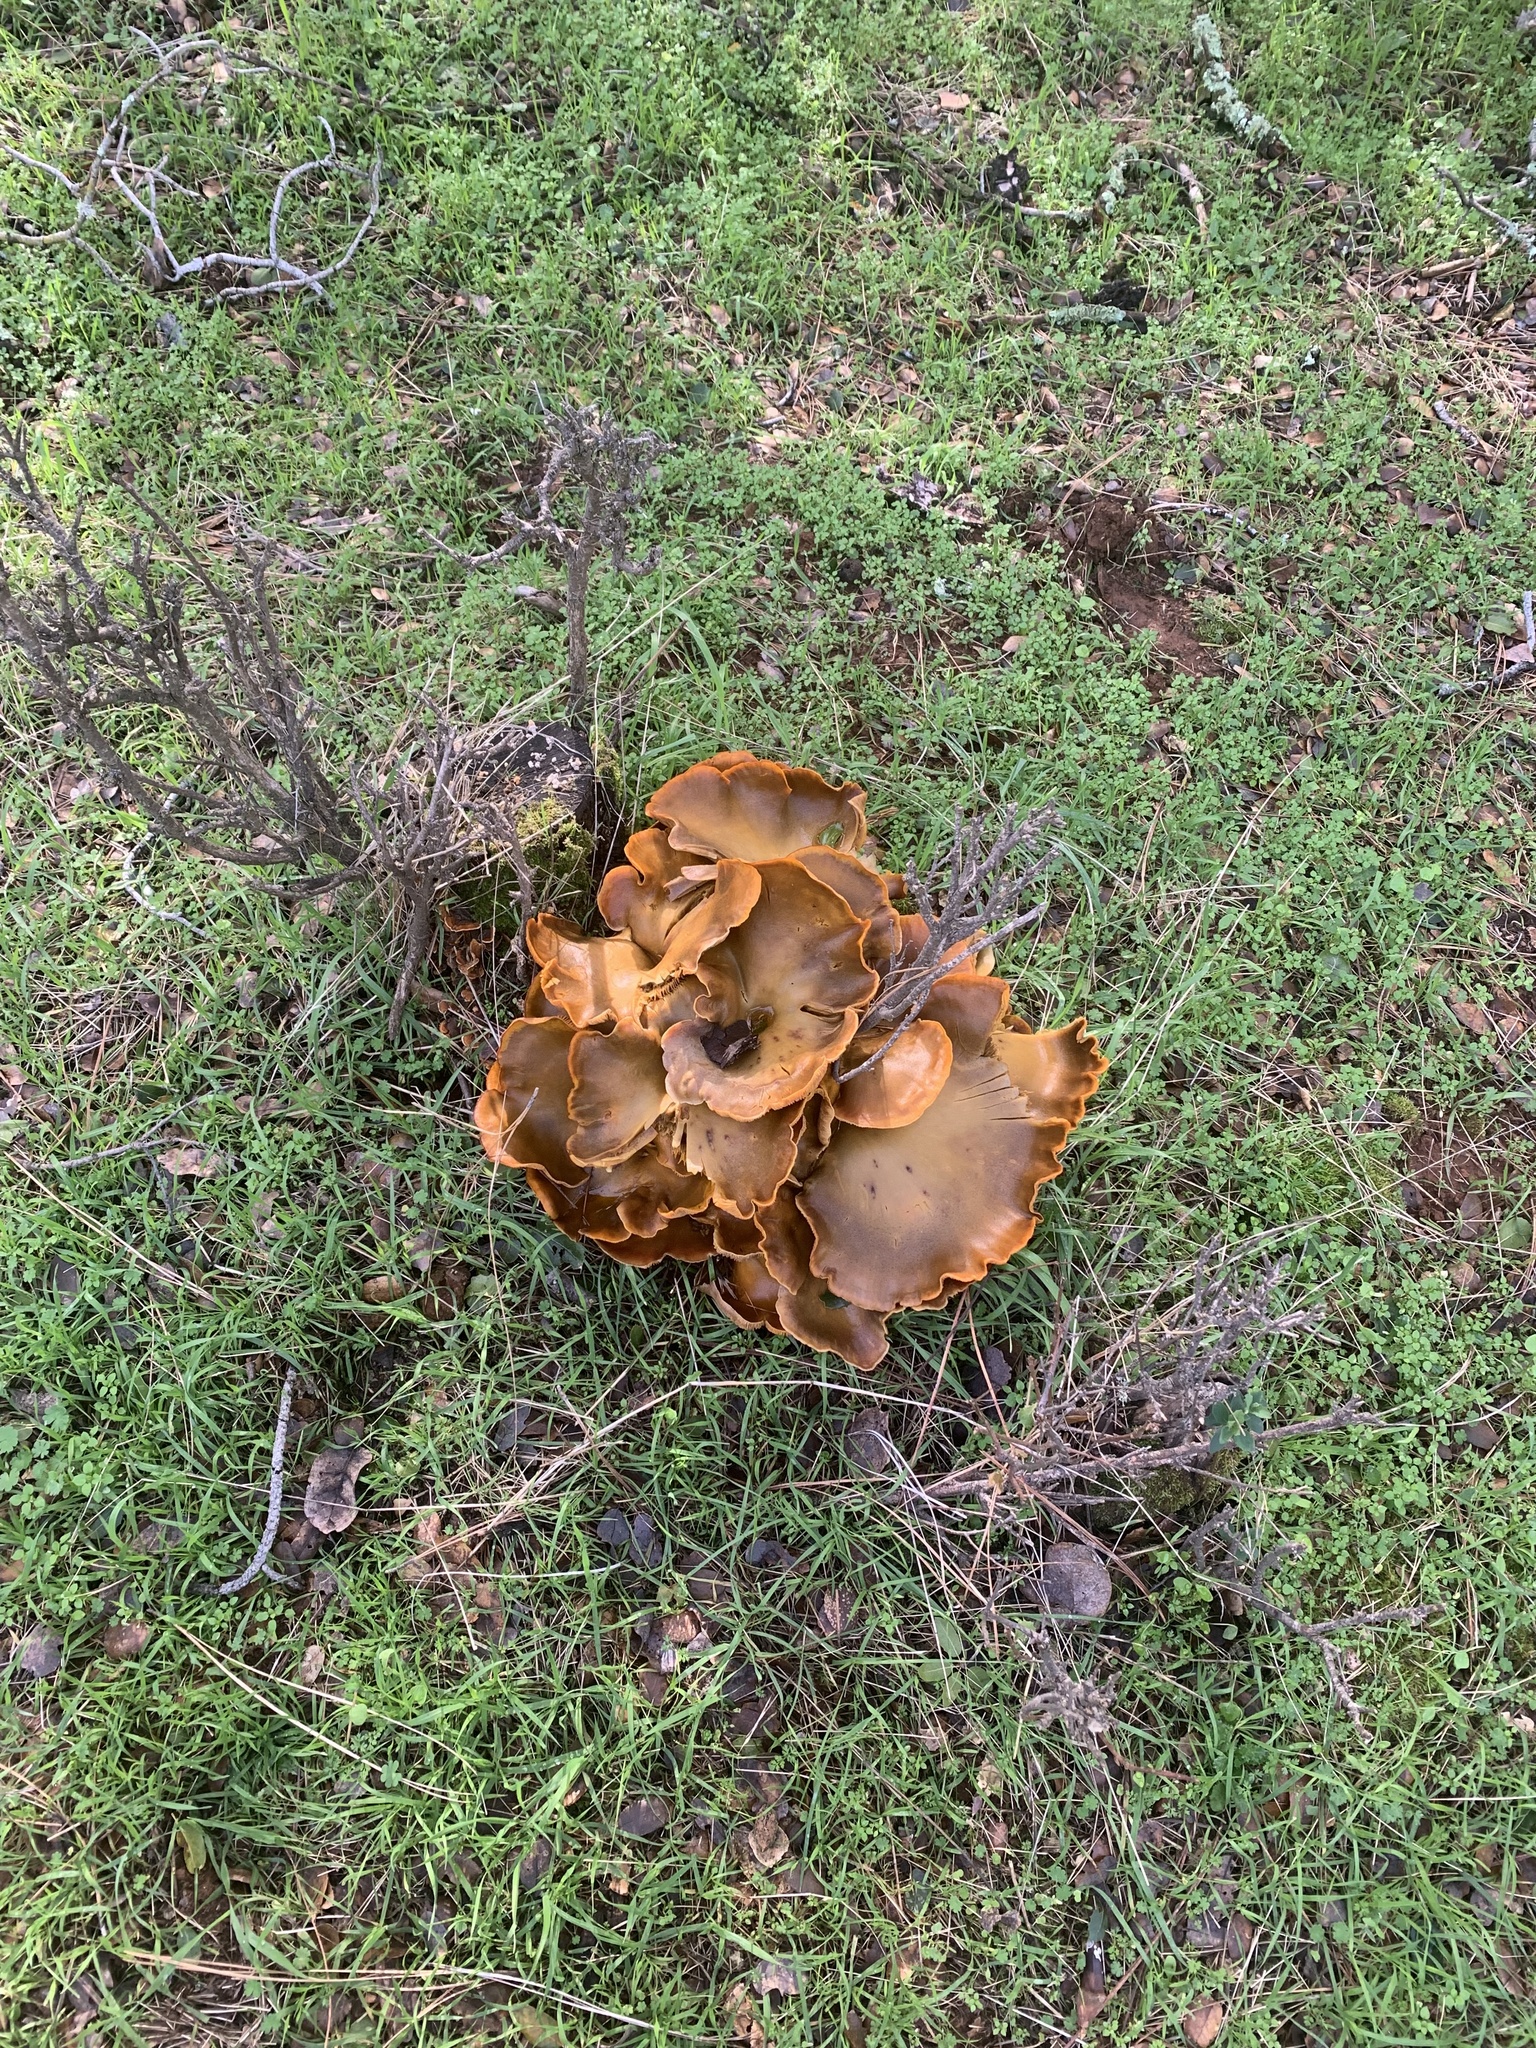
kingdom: Fungi
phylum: Basidiomycota
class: Agaricomycetes
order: Agaricales
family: Omphalotaceae
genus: Omphalotus
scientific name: Omphalotus olivascens
